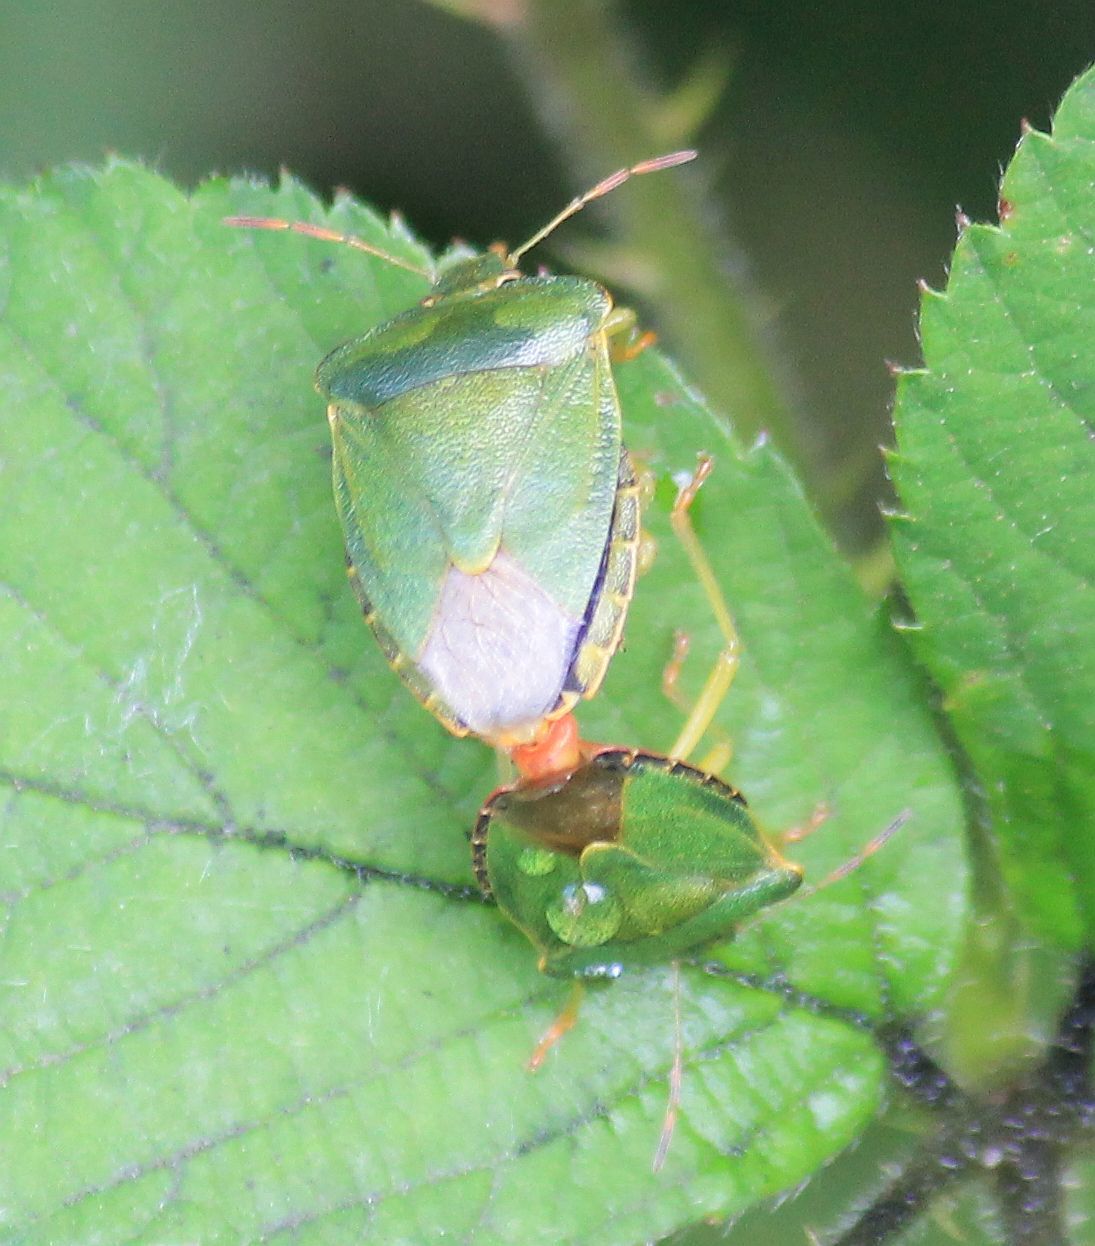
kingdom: Animalia
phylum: Arthropoda
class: Insecta
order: Hemiptera
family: Pentatomidae
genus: Palomena
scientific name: Palomena prasina
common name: Green shieldbug
